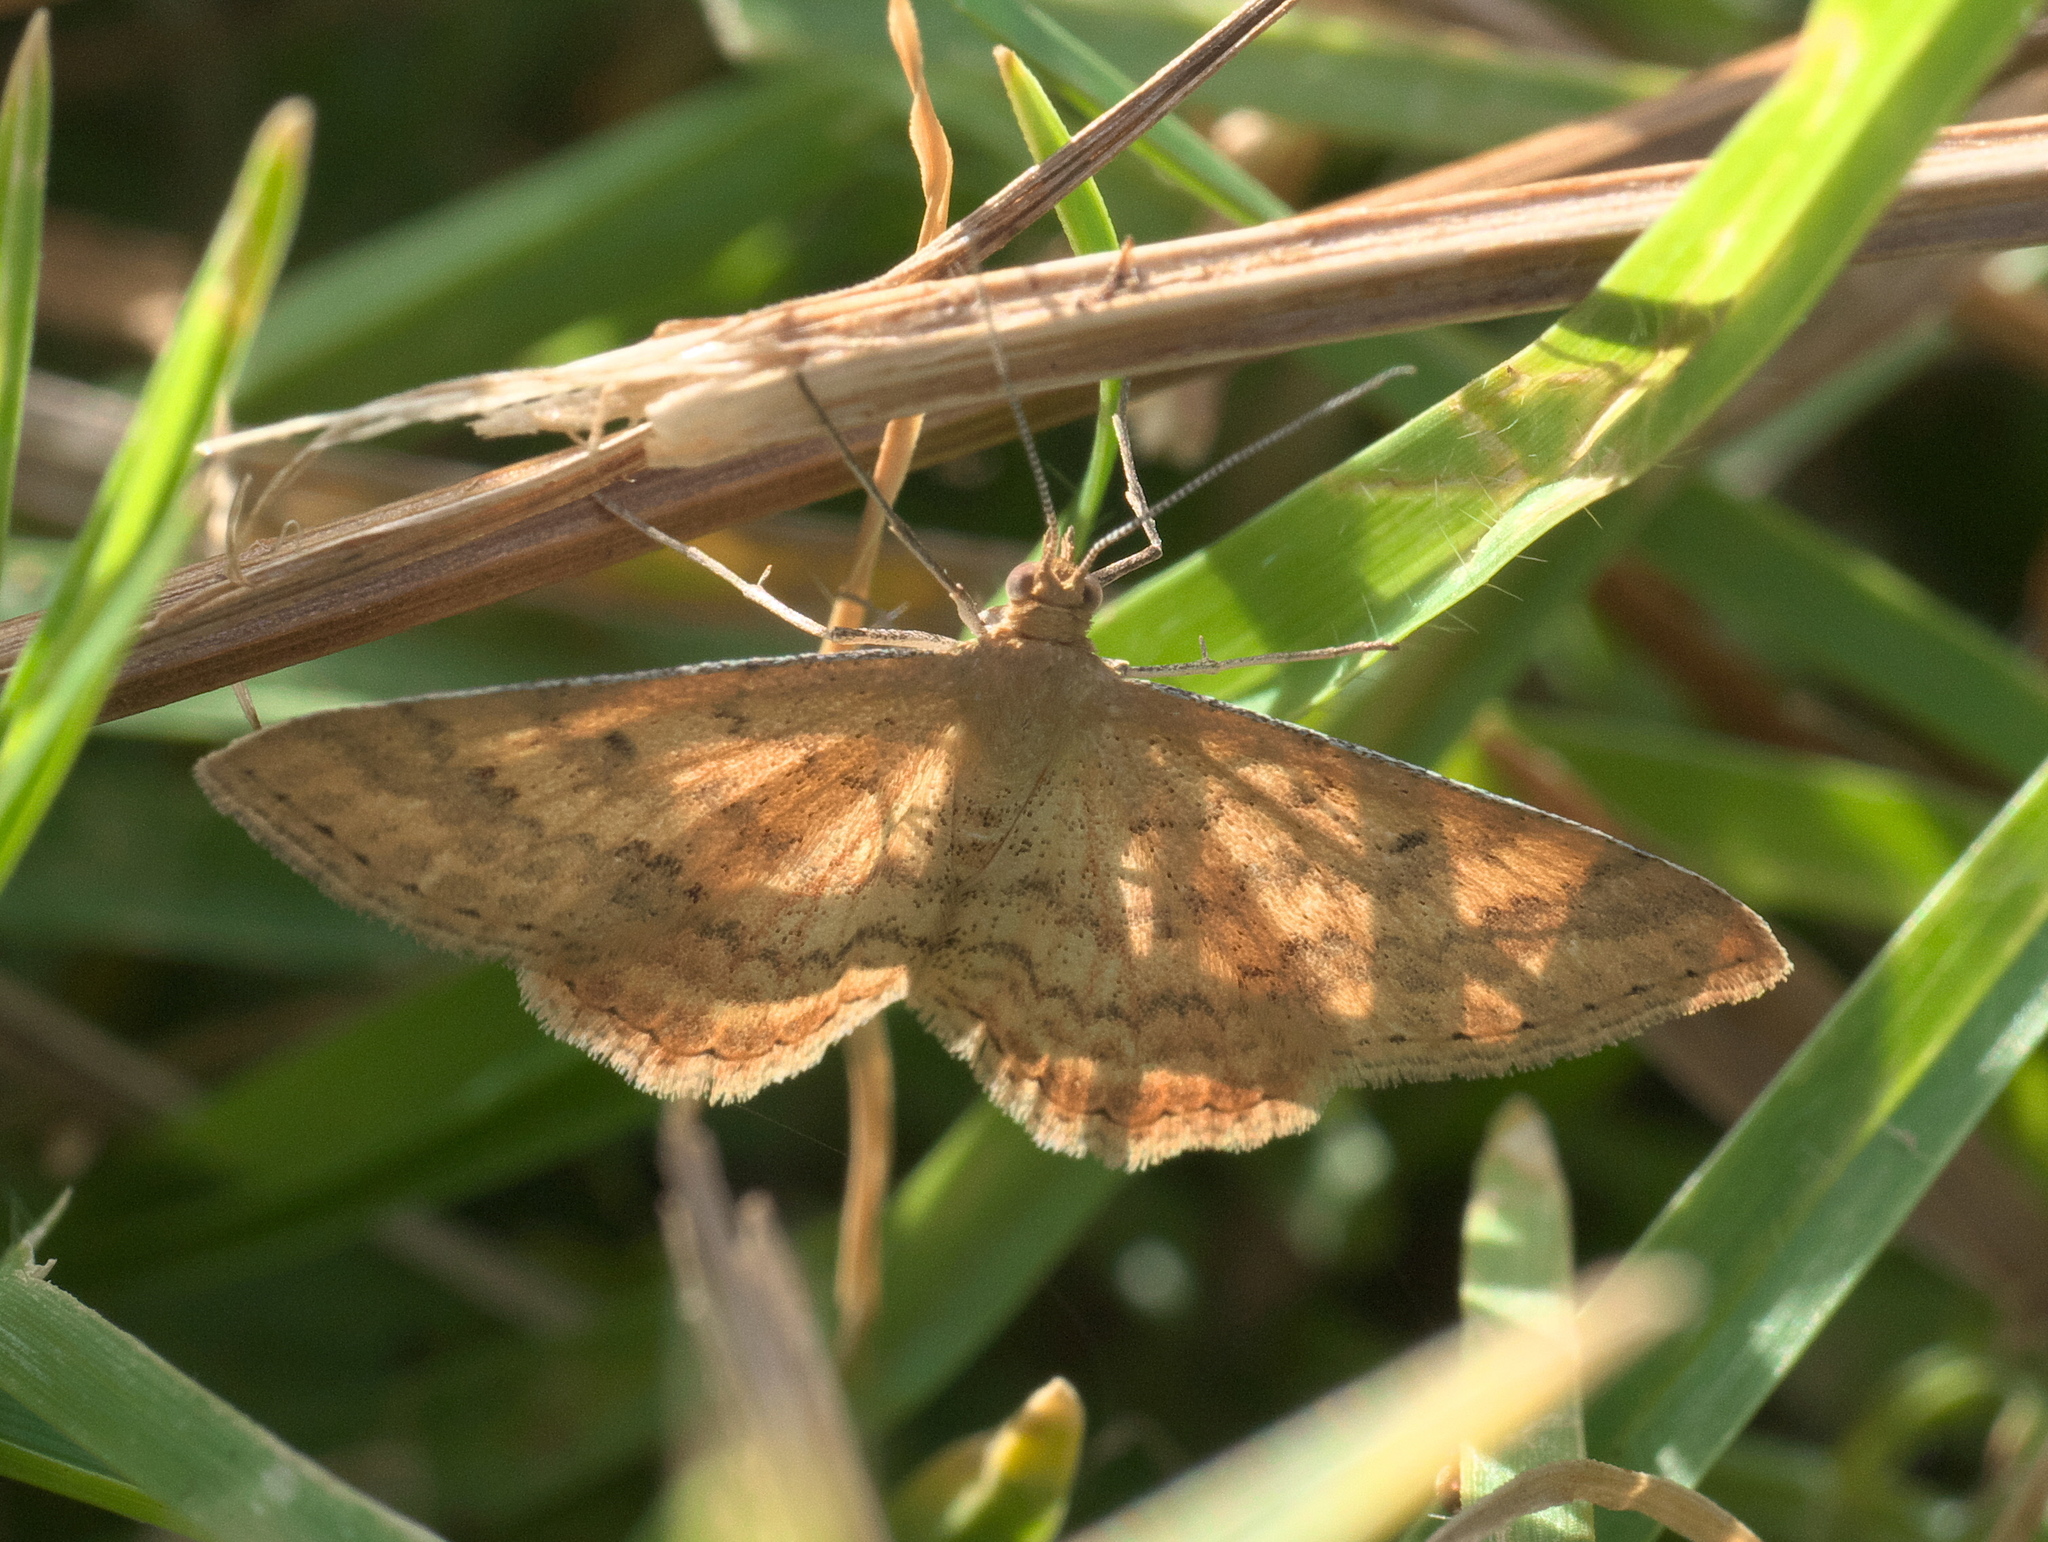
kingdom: Animalia
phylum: Arthropoda
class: Insecta
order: Lepidoptera
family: Geometridae
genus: Scopula
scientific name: Scopula rubraria
